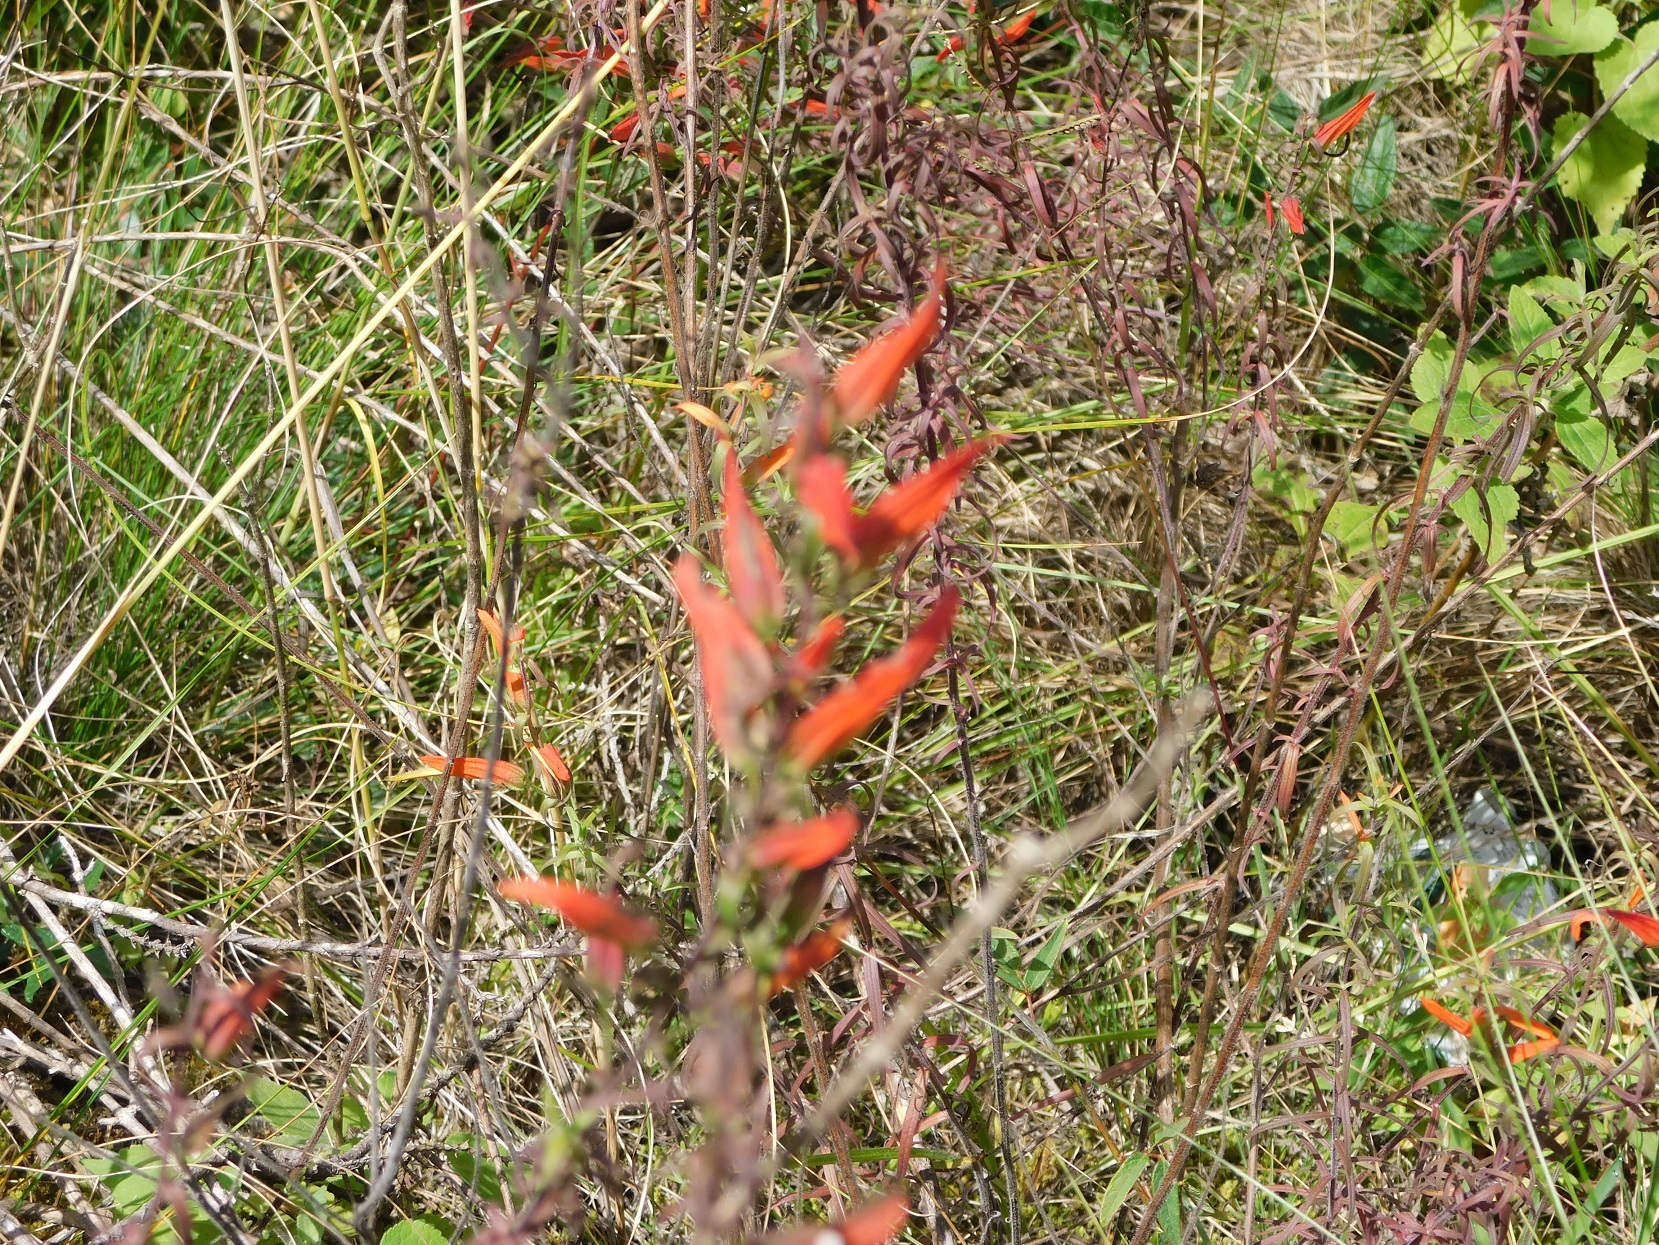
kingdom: Plantae
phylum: Tracheophyta
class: Magnoliopsida
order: Lamiales
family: Orobanchaceae
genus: Castilleja
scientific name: Castilleja integrifolia
